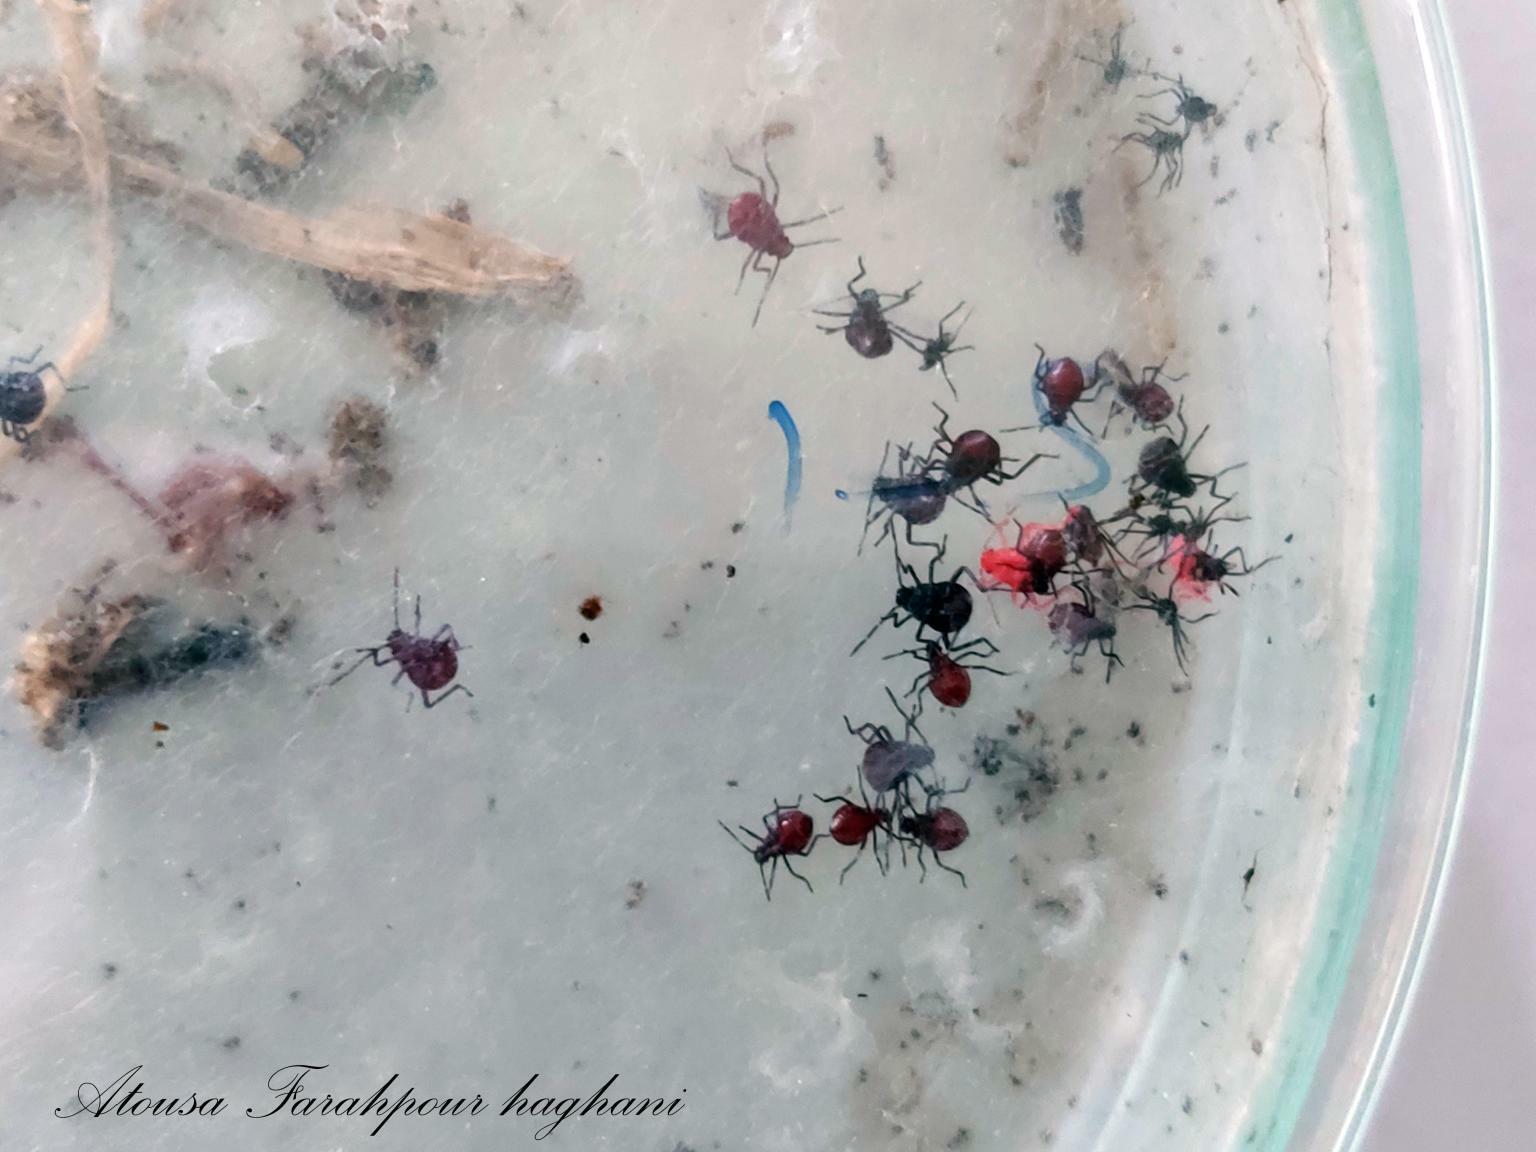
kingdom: Animalia
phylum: Arthropoda
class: Insecta
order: Hemiptera
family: Pentatomidae
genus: Andrallus
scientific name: Andrallus spinidens
